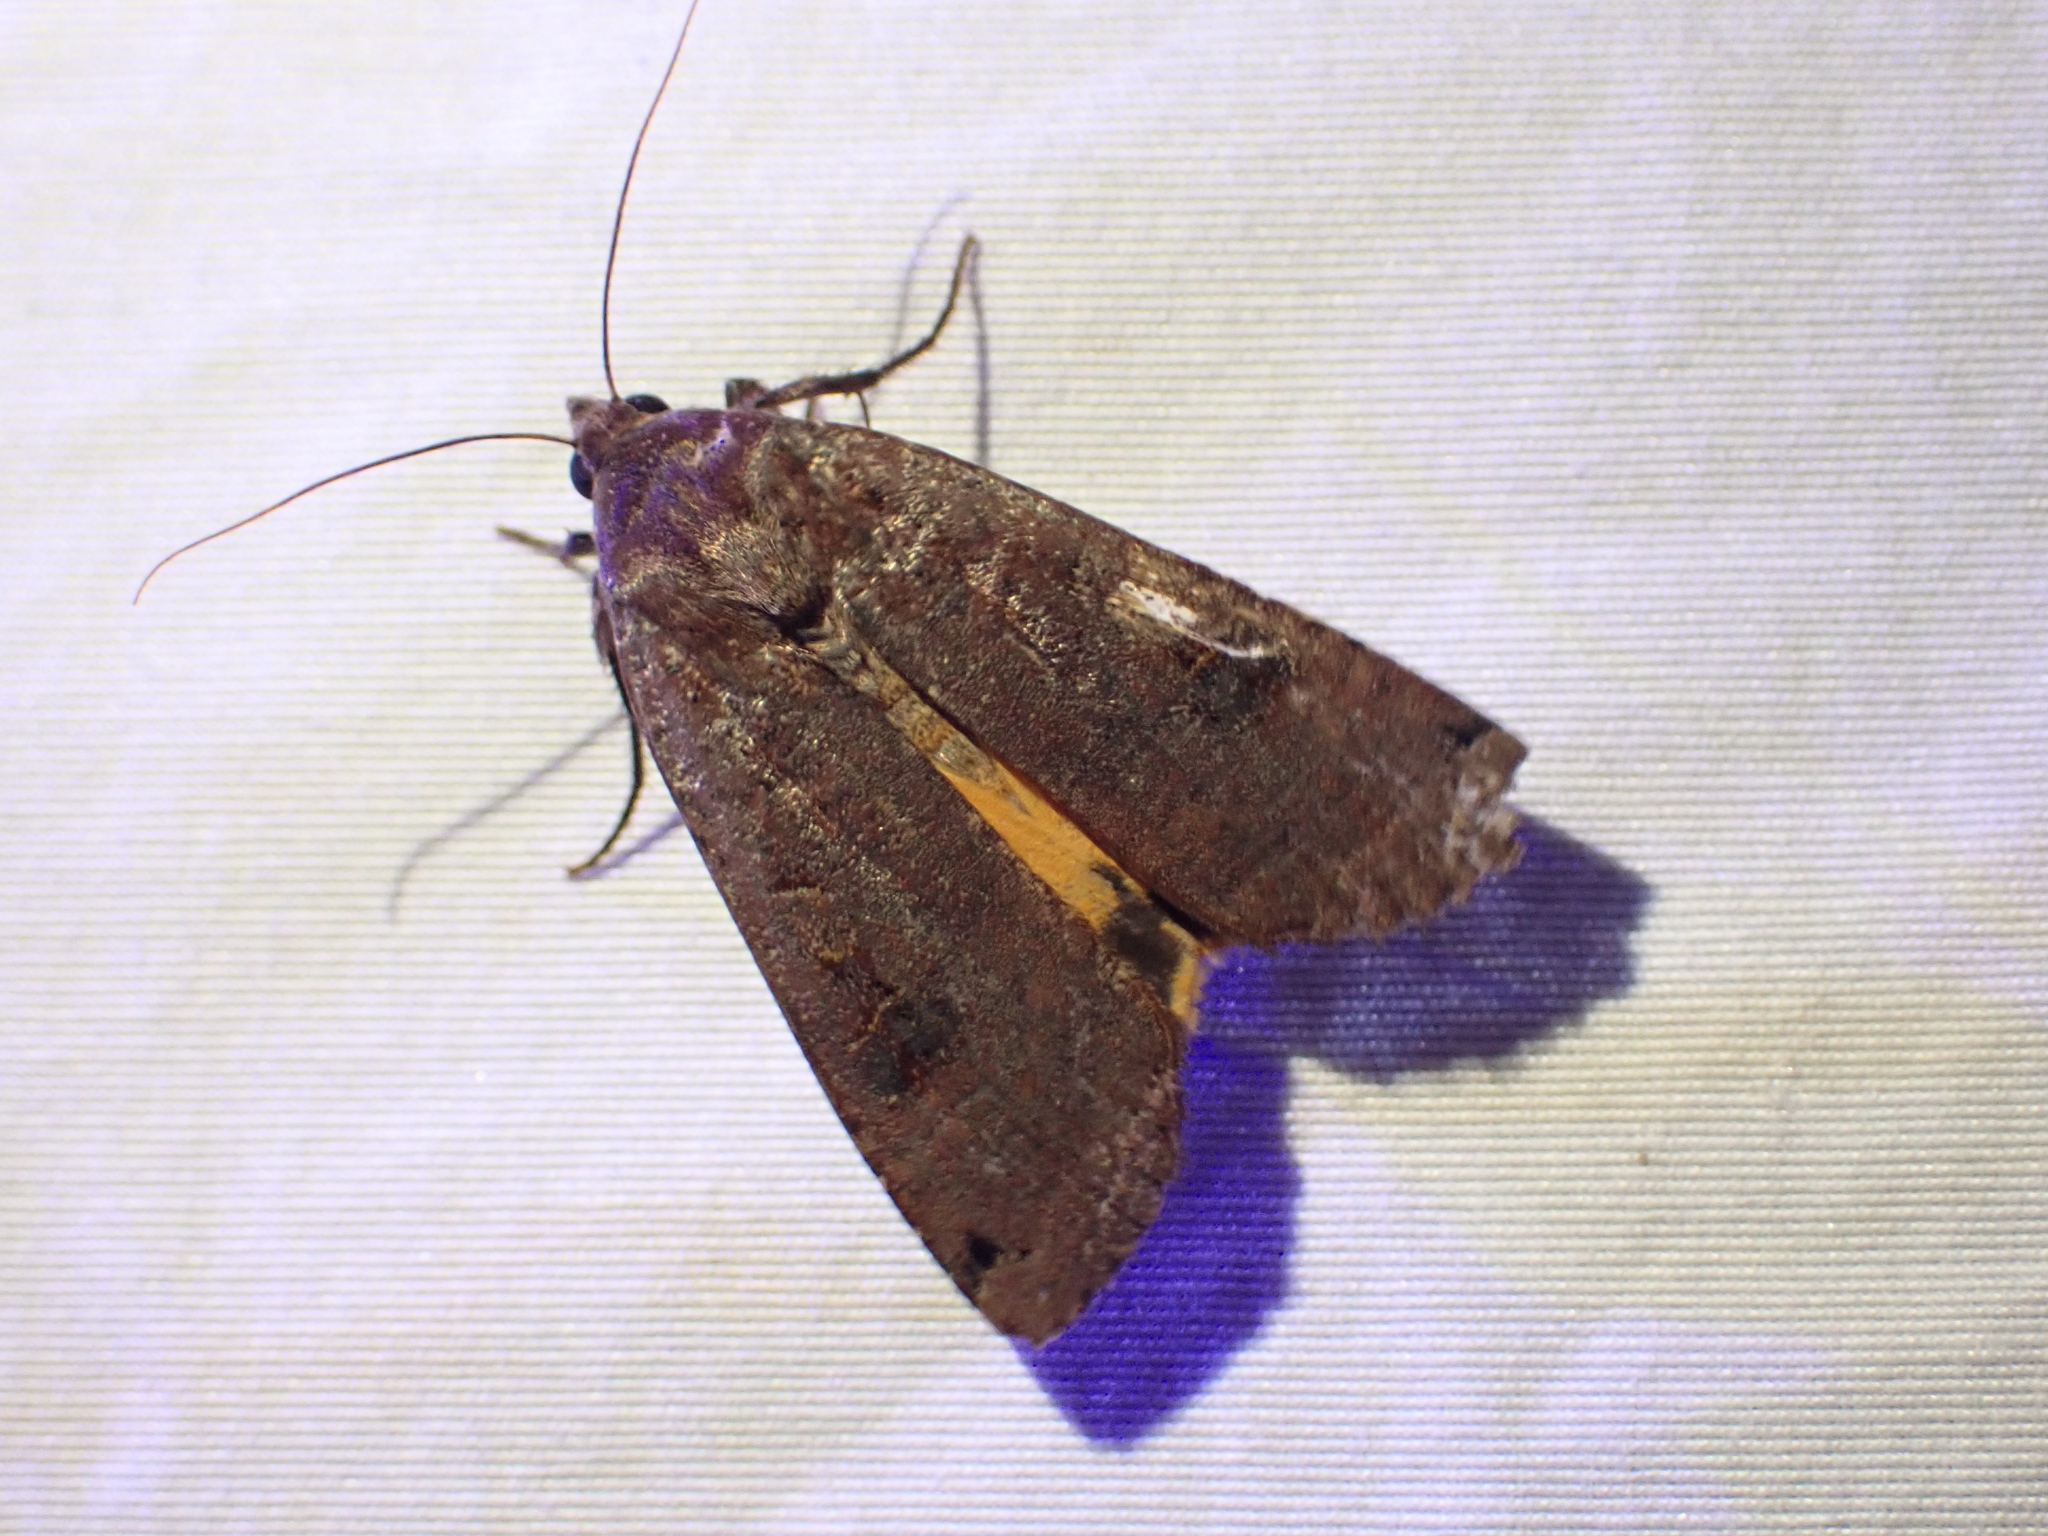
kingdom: Animalia
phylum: Arthropoda
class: Insecta
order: Lepidoptera
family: Noctuidae
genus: Noctua
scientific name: Noctua pronuba
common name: Large yellow underwing
